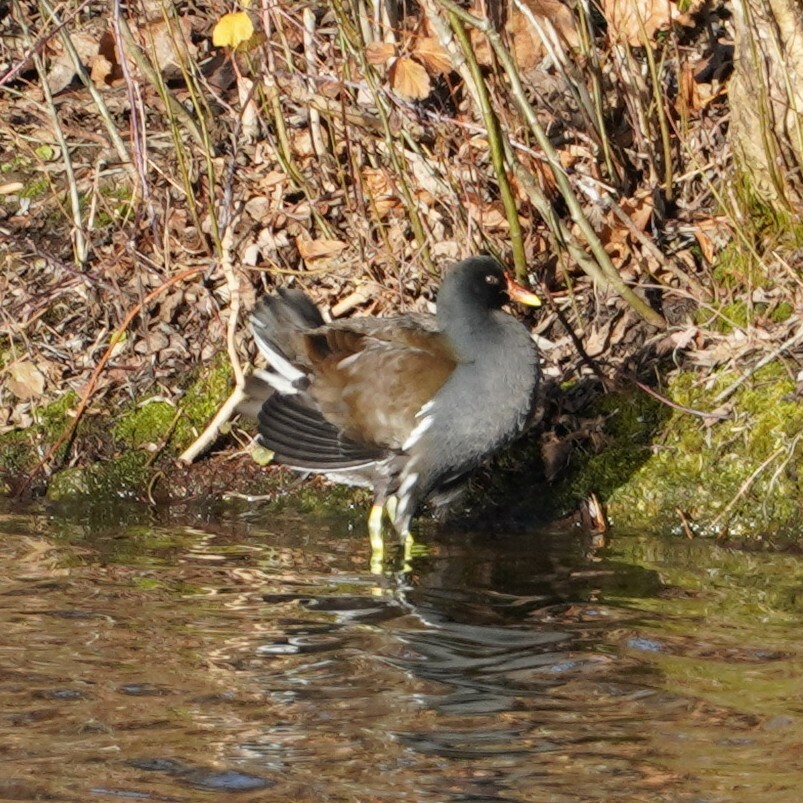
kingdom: Animalia
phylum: Chordata
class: Aves
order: Gruiformes
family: Rallidae
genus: Gallinula
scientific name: Gallinula chloropus
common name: Common moorhen
